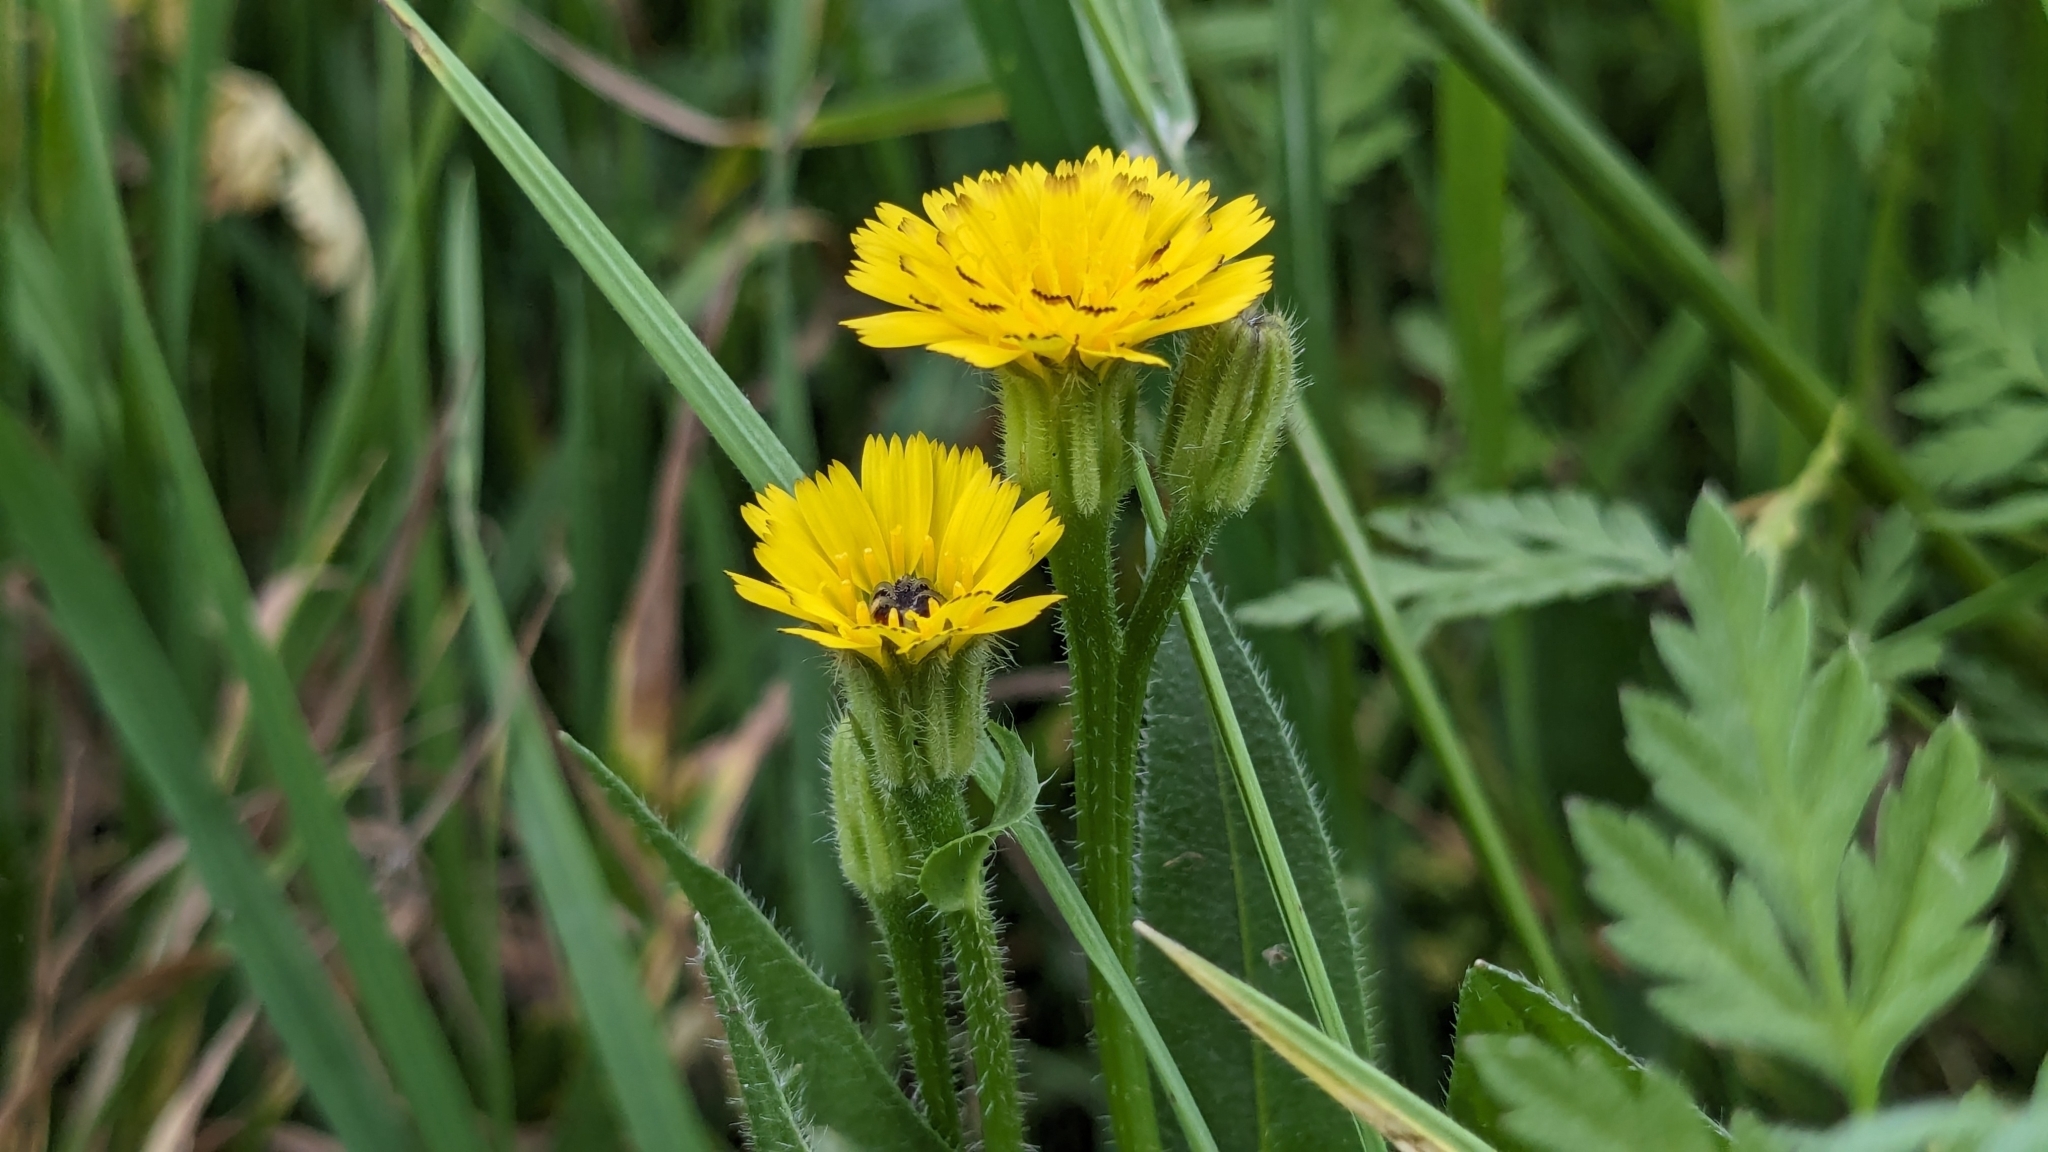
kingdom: Plantae
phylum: Tracheophyta
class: Magnoliopsida
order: Asterales
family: Asteraceae
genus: Hedypnois
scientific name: Hedypnois rhagadioloides
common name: Cretan weed
